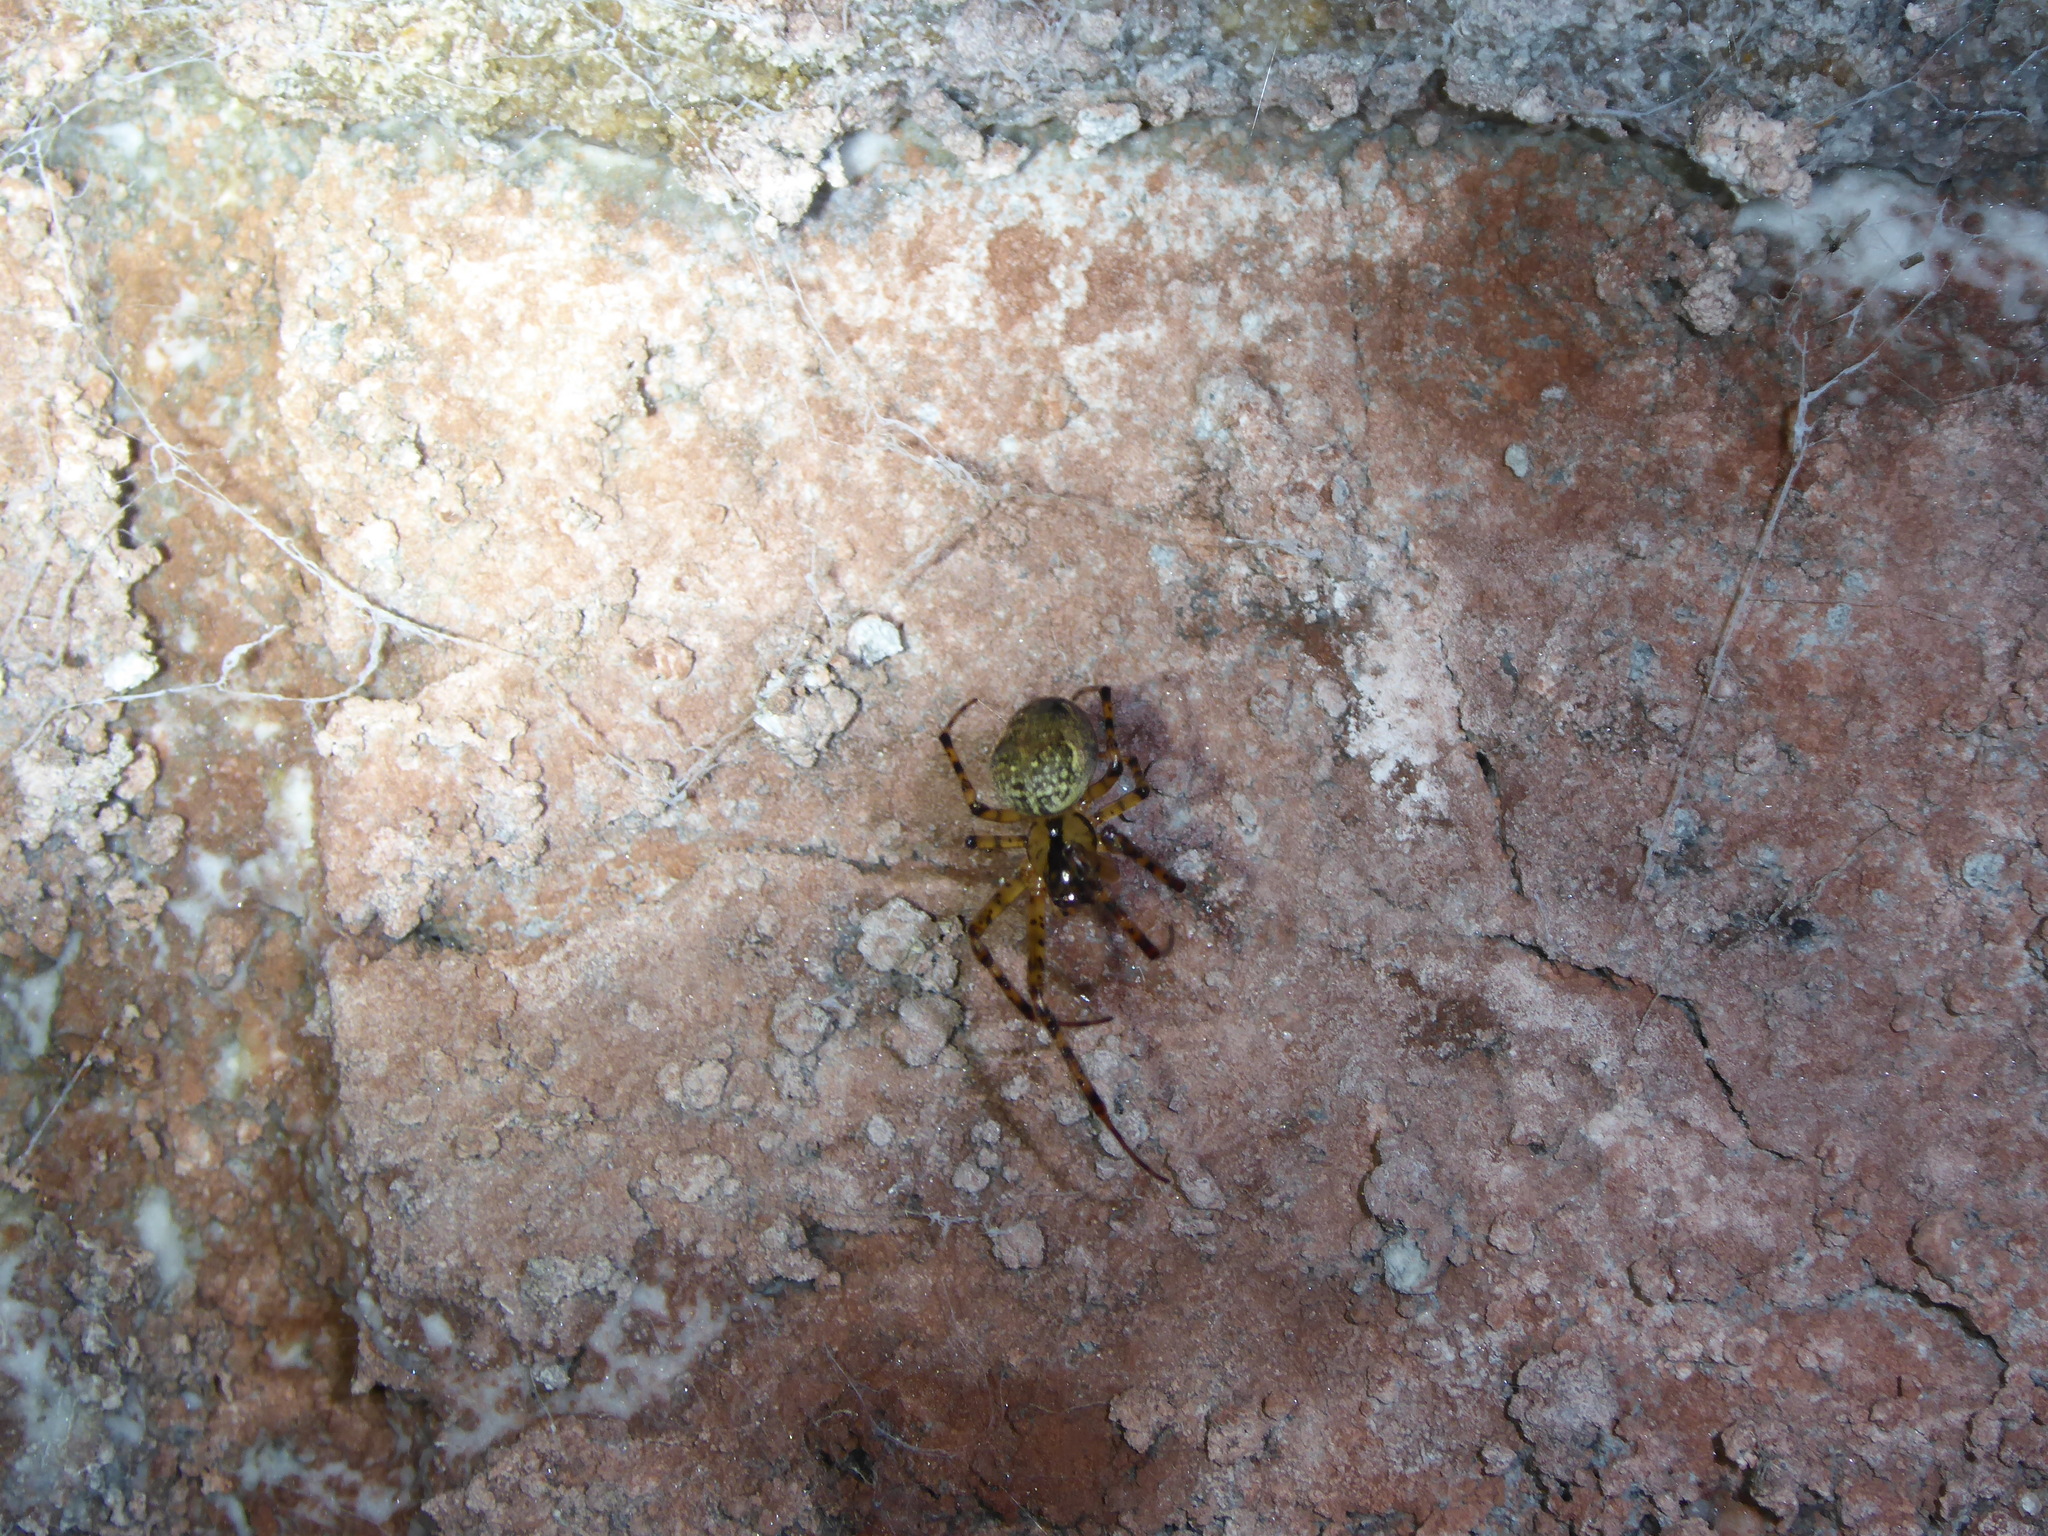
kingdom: Animalia
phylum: Arthropoda
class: Arachnida
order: Araneae
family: Tetragnathidae
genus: Metellina
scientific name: Metellina merianae
